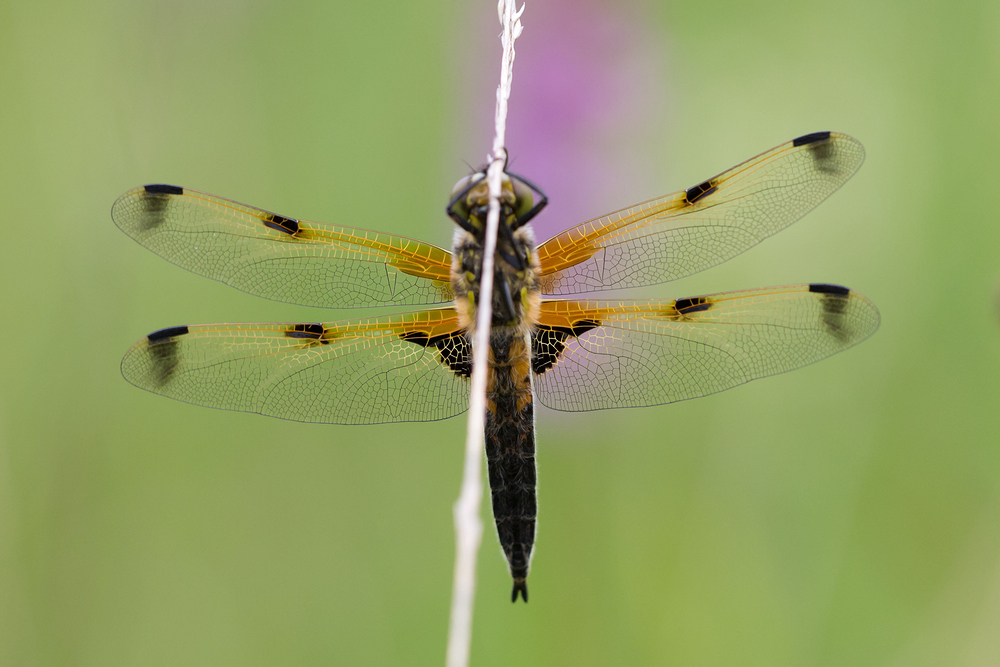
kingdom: Animalia
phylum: Arthropoda
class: Insecta
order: Odonata
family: Libellulidae
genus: Libellula
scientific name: Libellula quadrimaculata
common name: Four-spotted chaser
